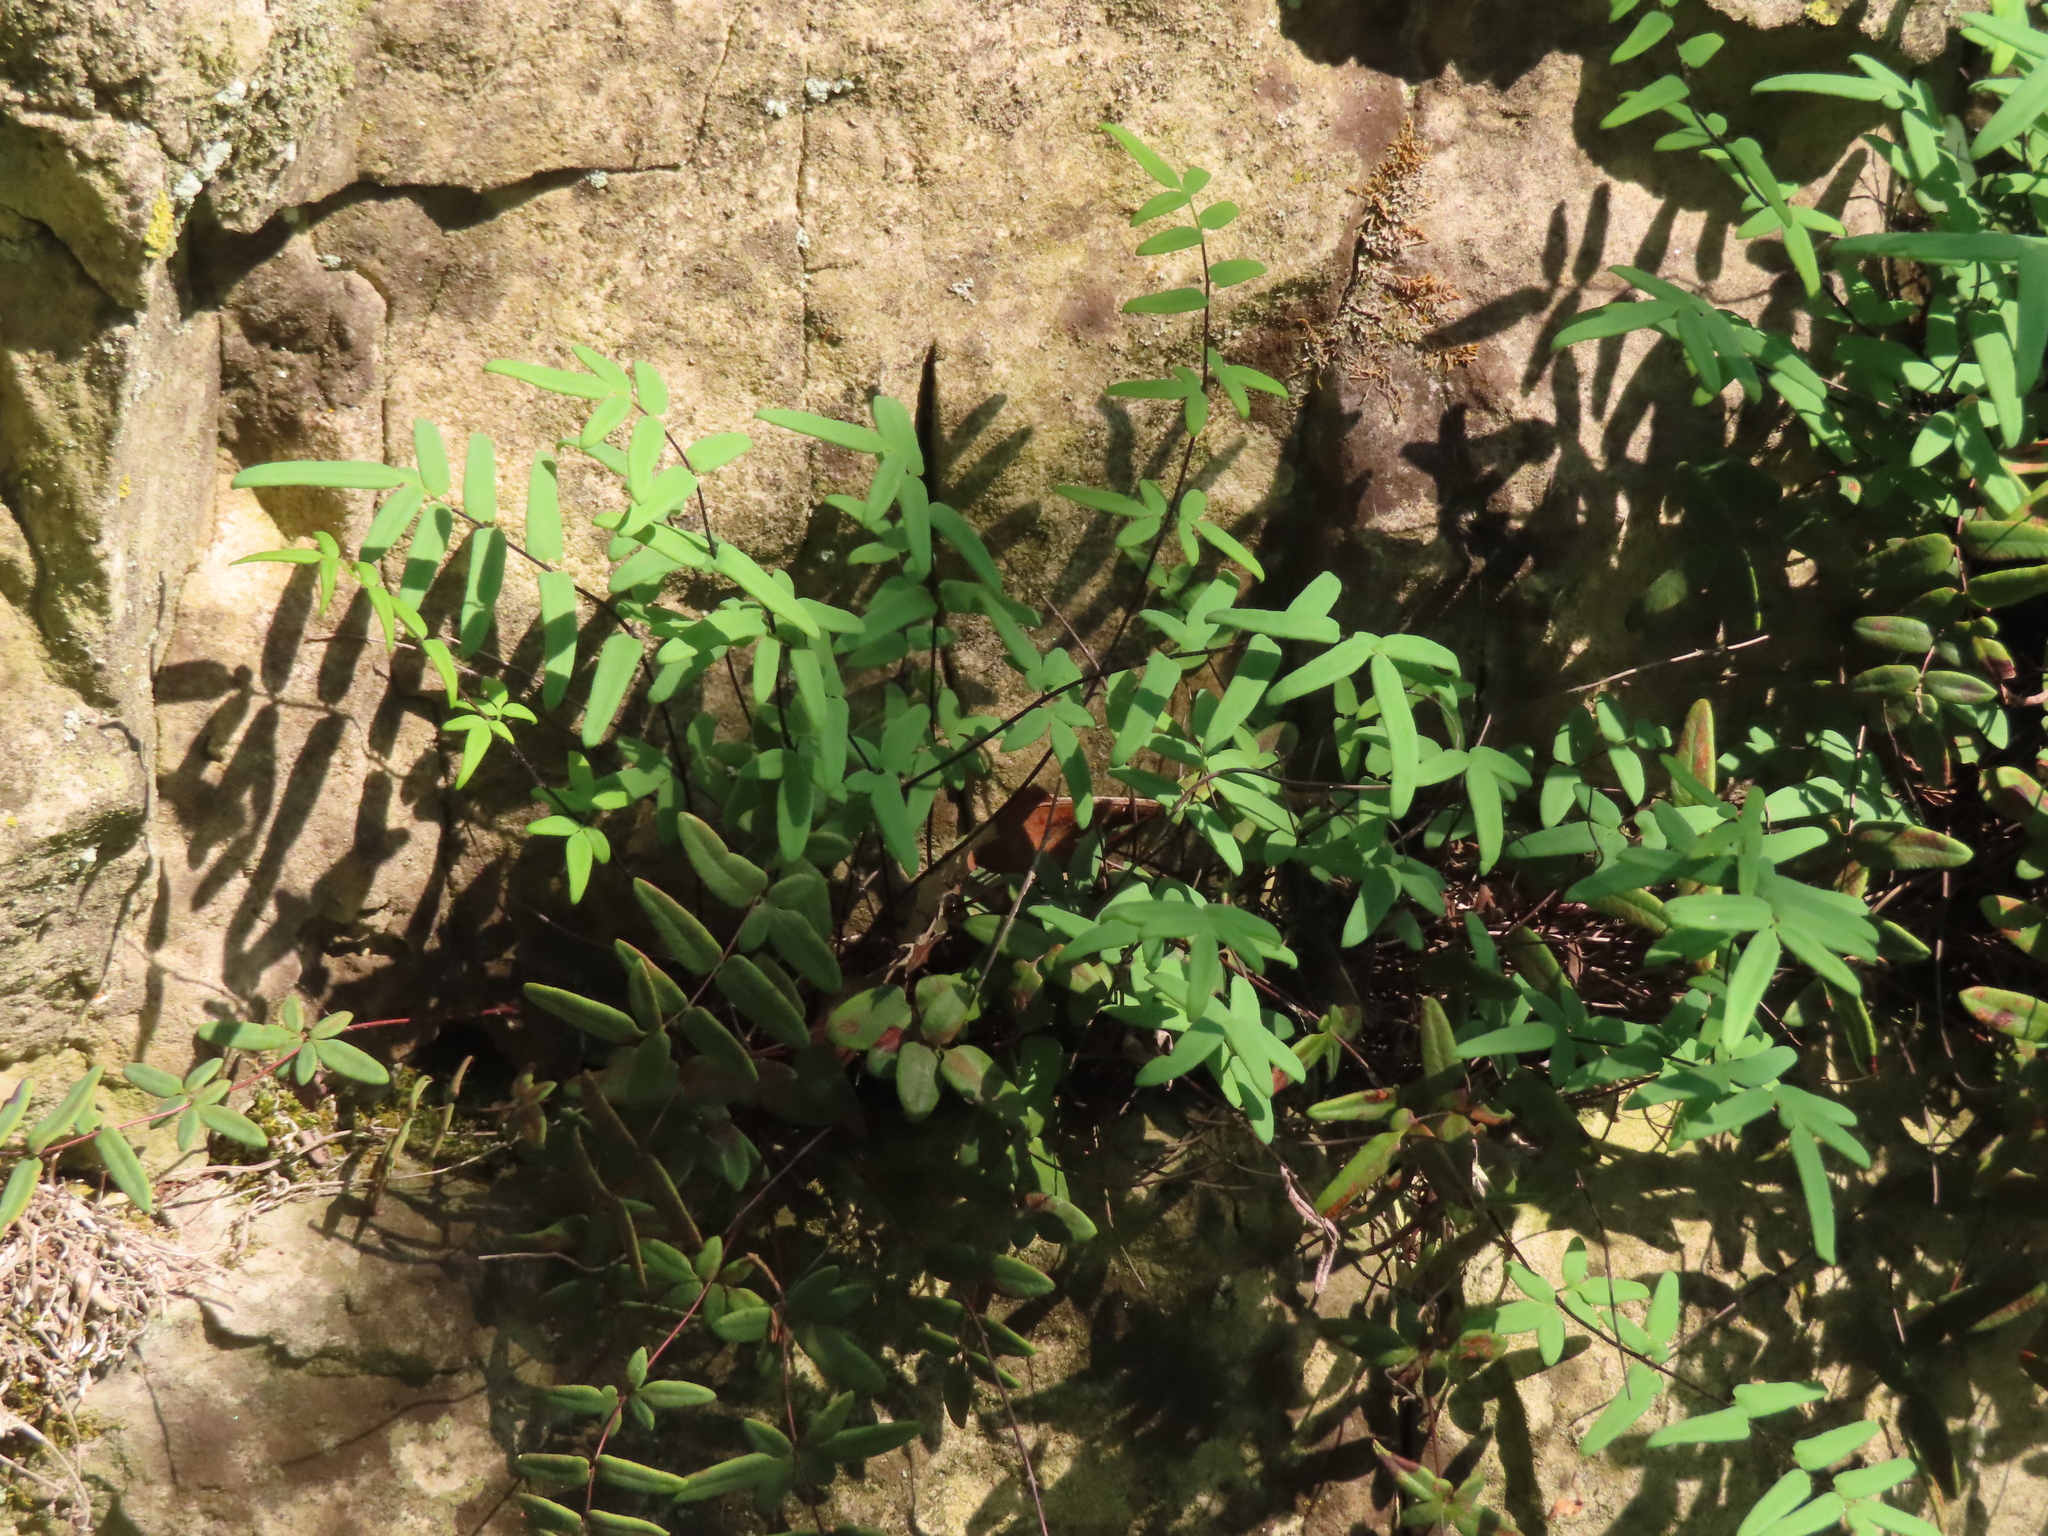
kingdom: Plantae
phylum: Tracheophyta
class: Polypodiopsida
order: Polypodiales
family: Pteridaceae
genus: Pellaea
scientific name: Pellaea glabella
